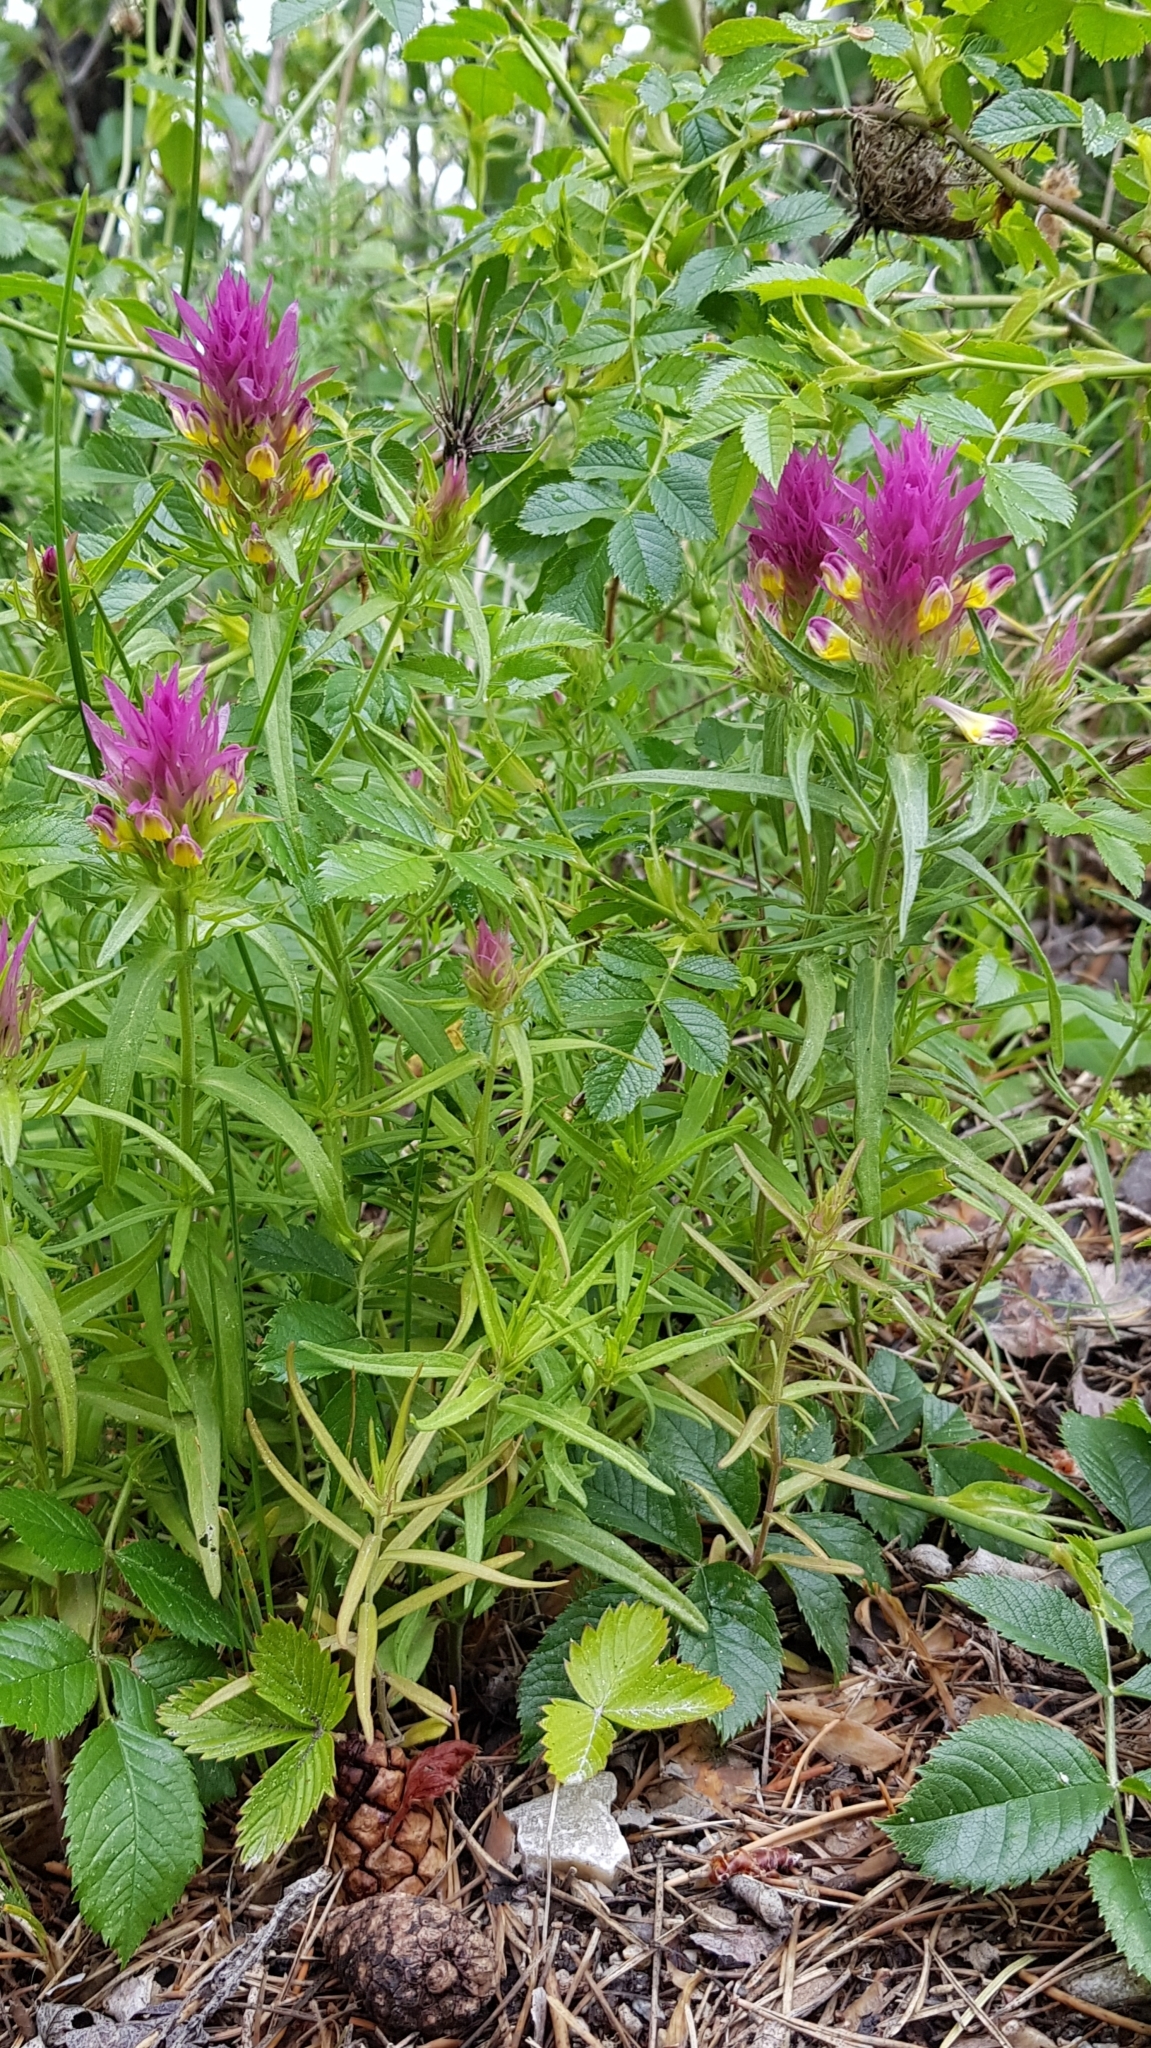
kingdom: Plantae
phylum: Tracheophyta
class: Magnoliopsida
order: Lamiales
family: Orobanchaceae
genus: Melampyrum
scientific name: Melampyrum arvense
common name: Field cow-wheat
